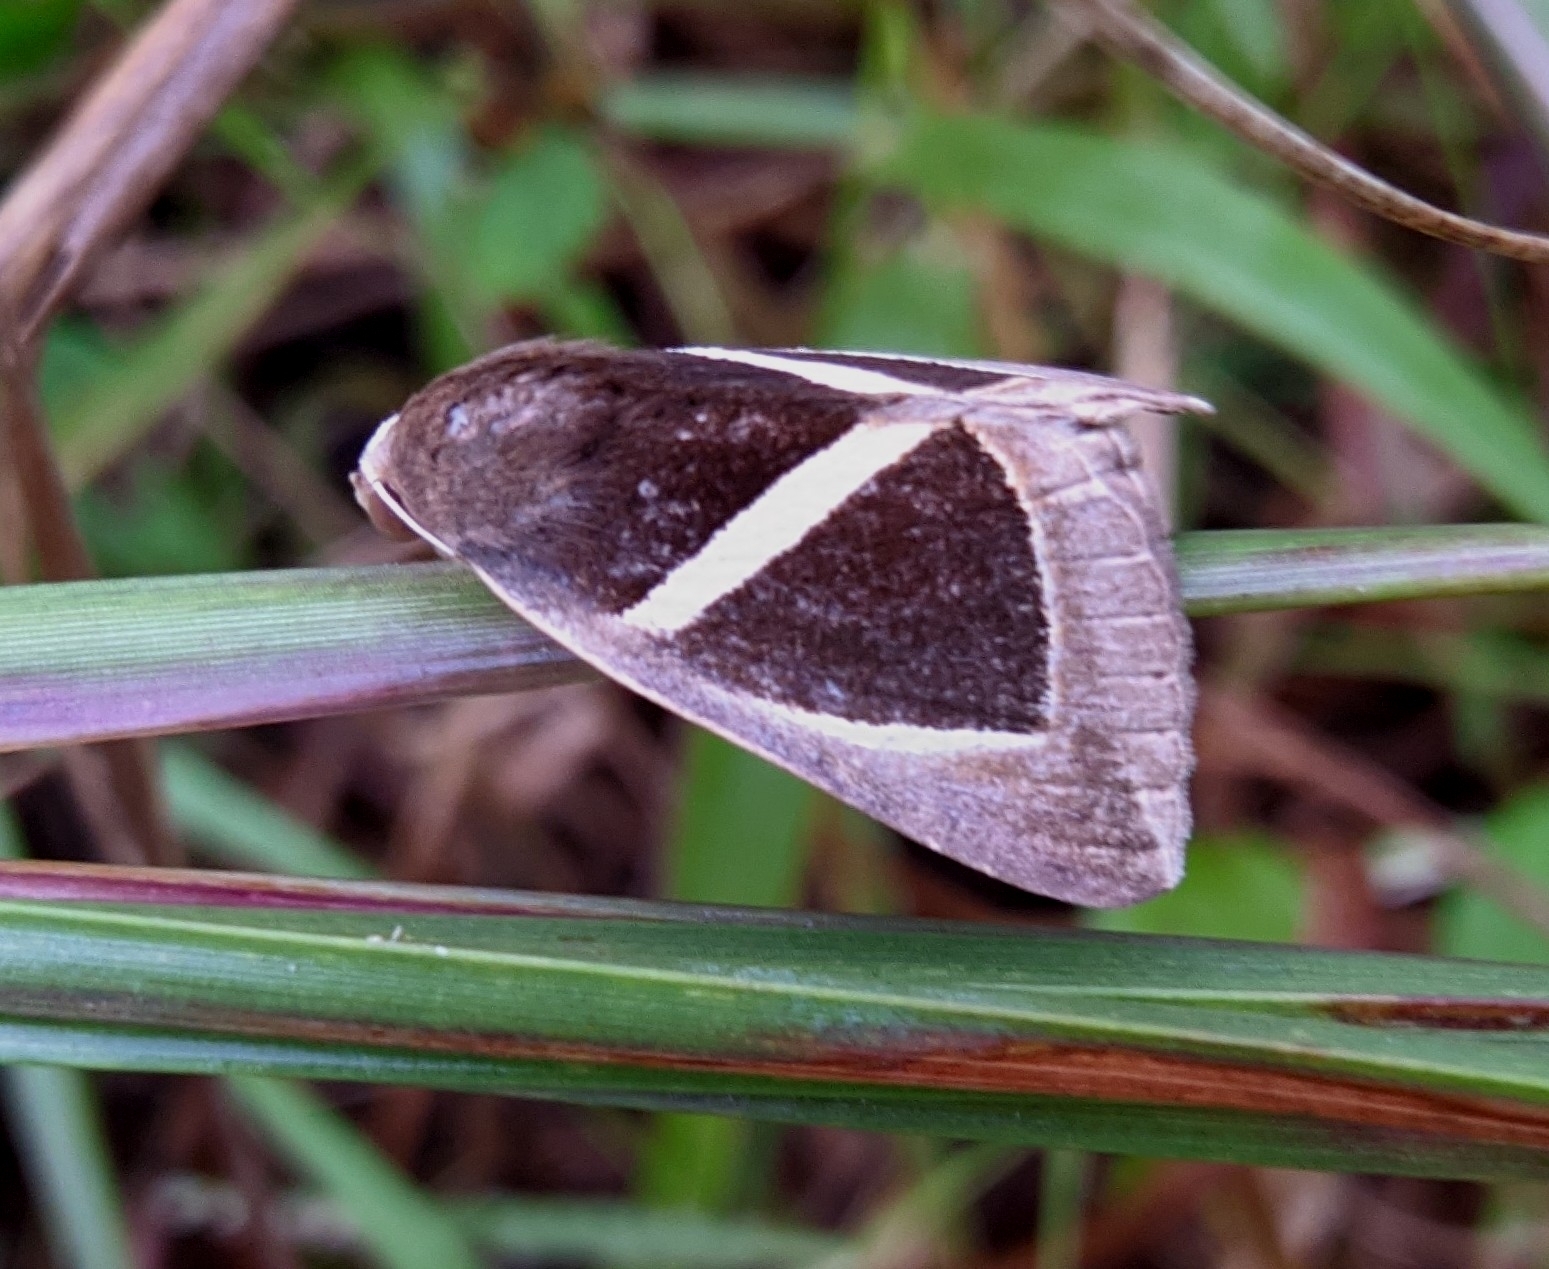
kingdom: Animalia
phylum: Arthropoda
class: Insecta
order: Lepidoptera
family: Erebidae
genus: Chalciope
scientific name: Chalciope mygdon
